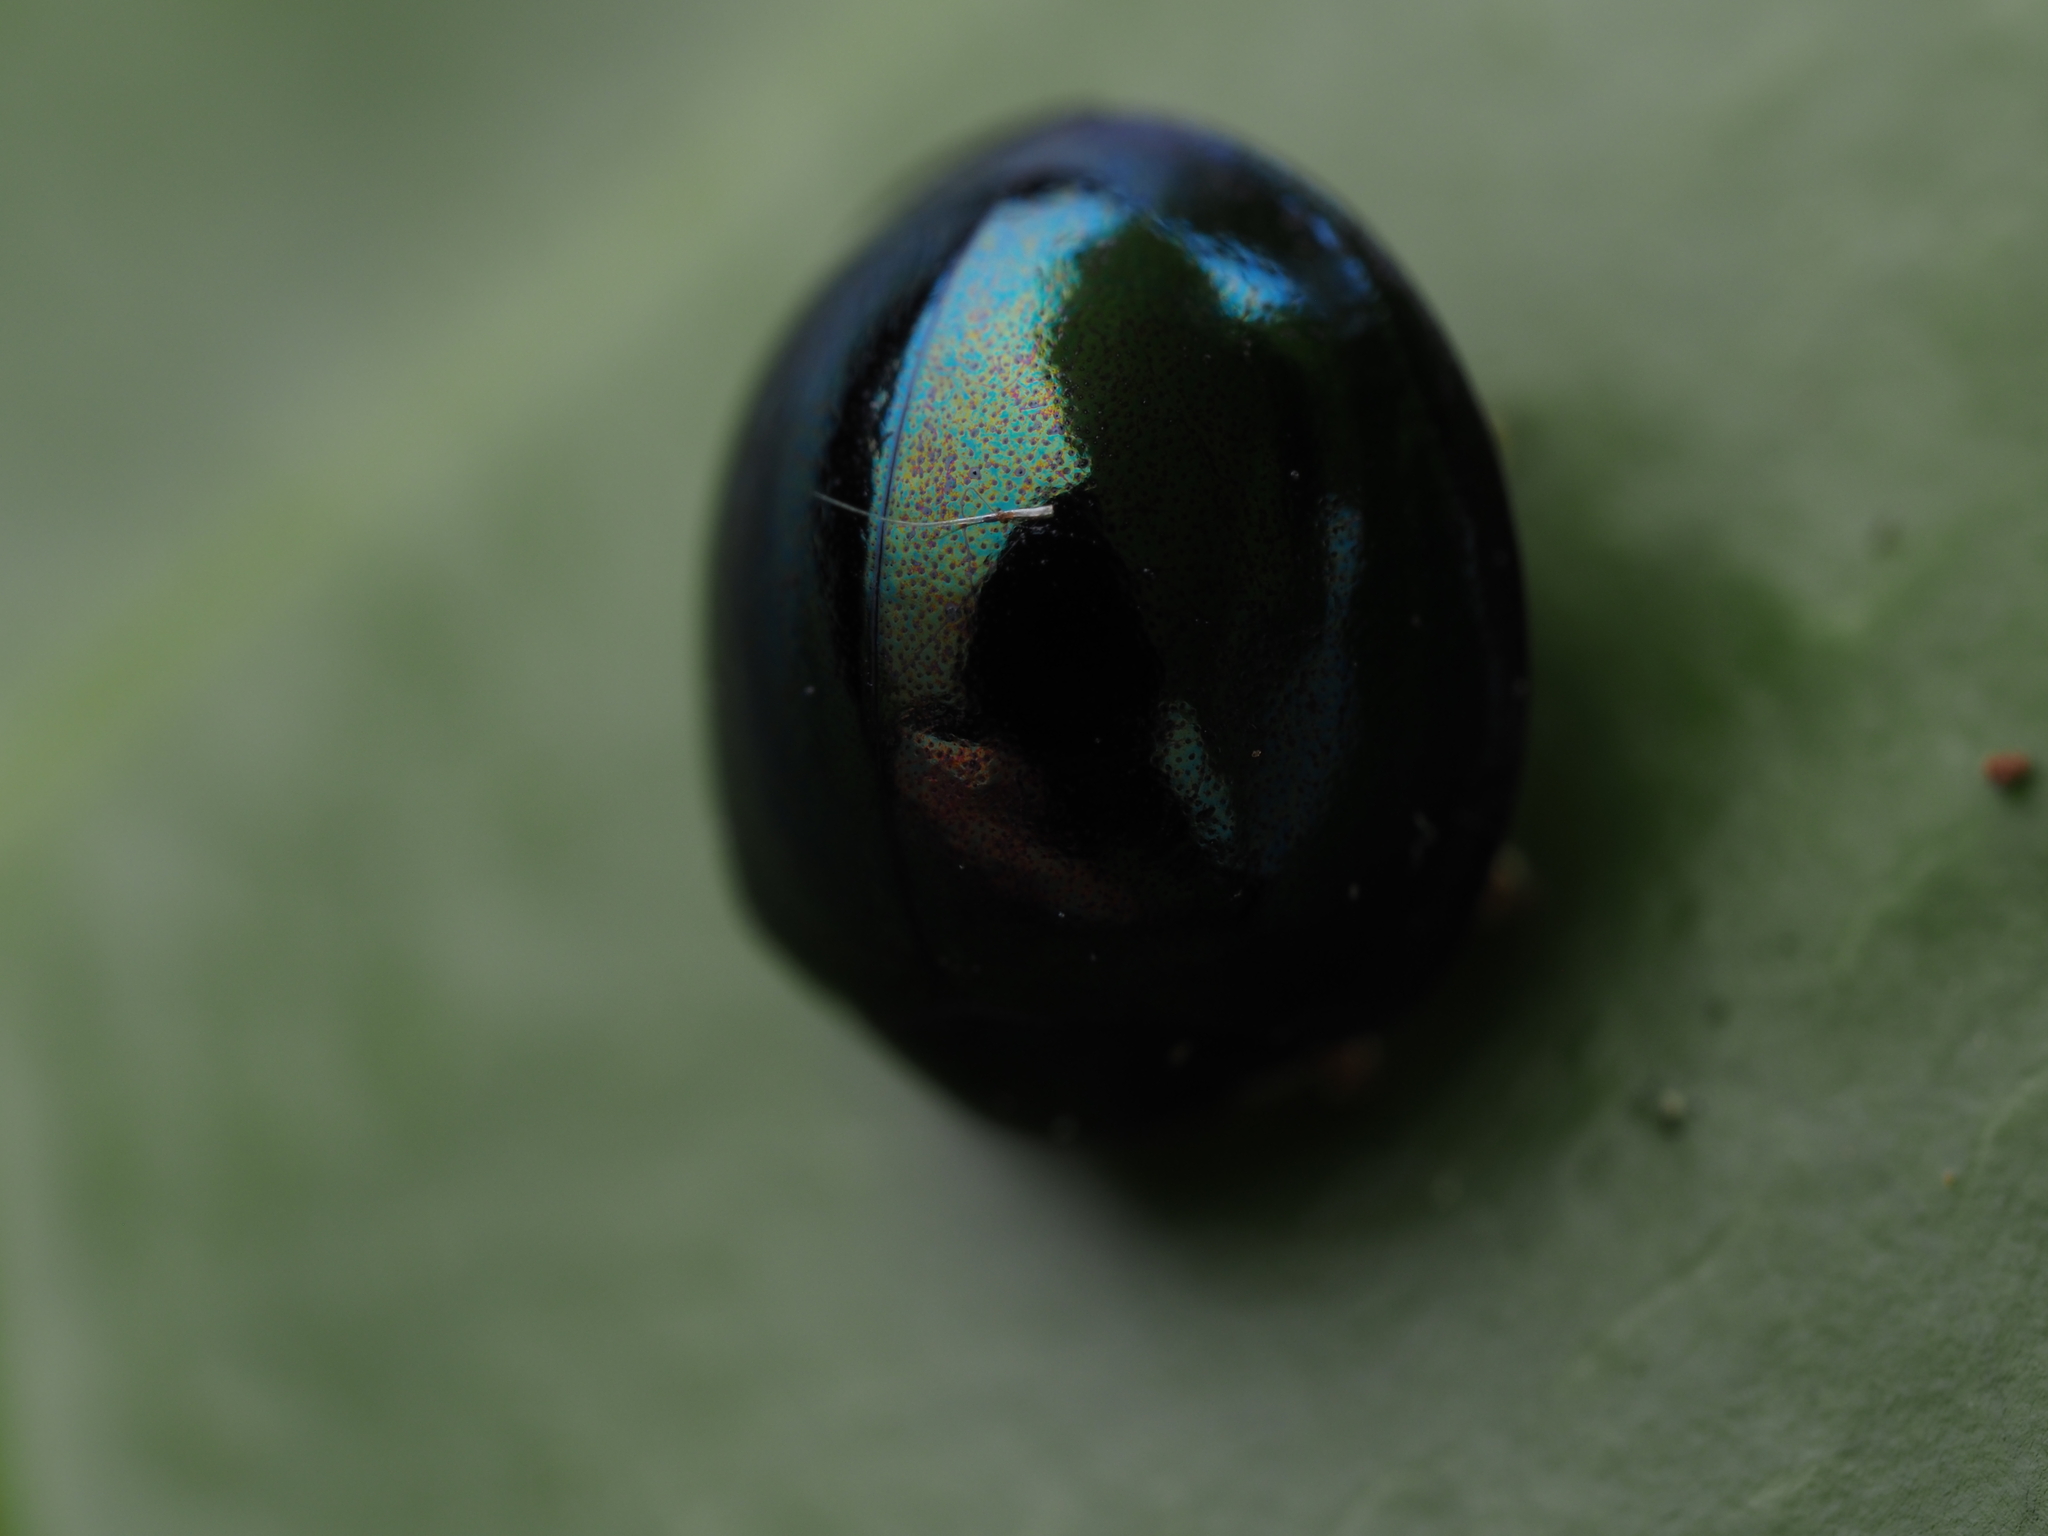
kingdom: Animalia
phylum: Arthropoda
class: Insecta
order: Coleoptera
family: Coccinellidae
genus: Halmus
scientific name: Halmus chalybeus
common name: Steel blue ladybird beetle
